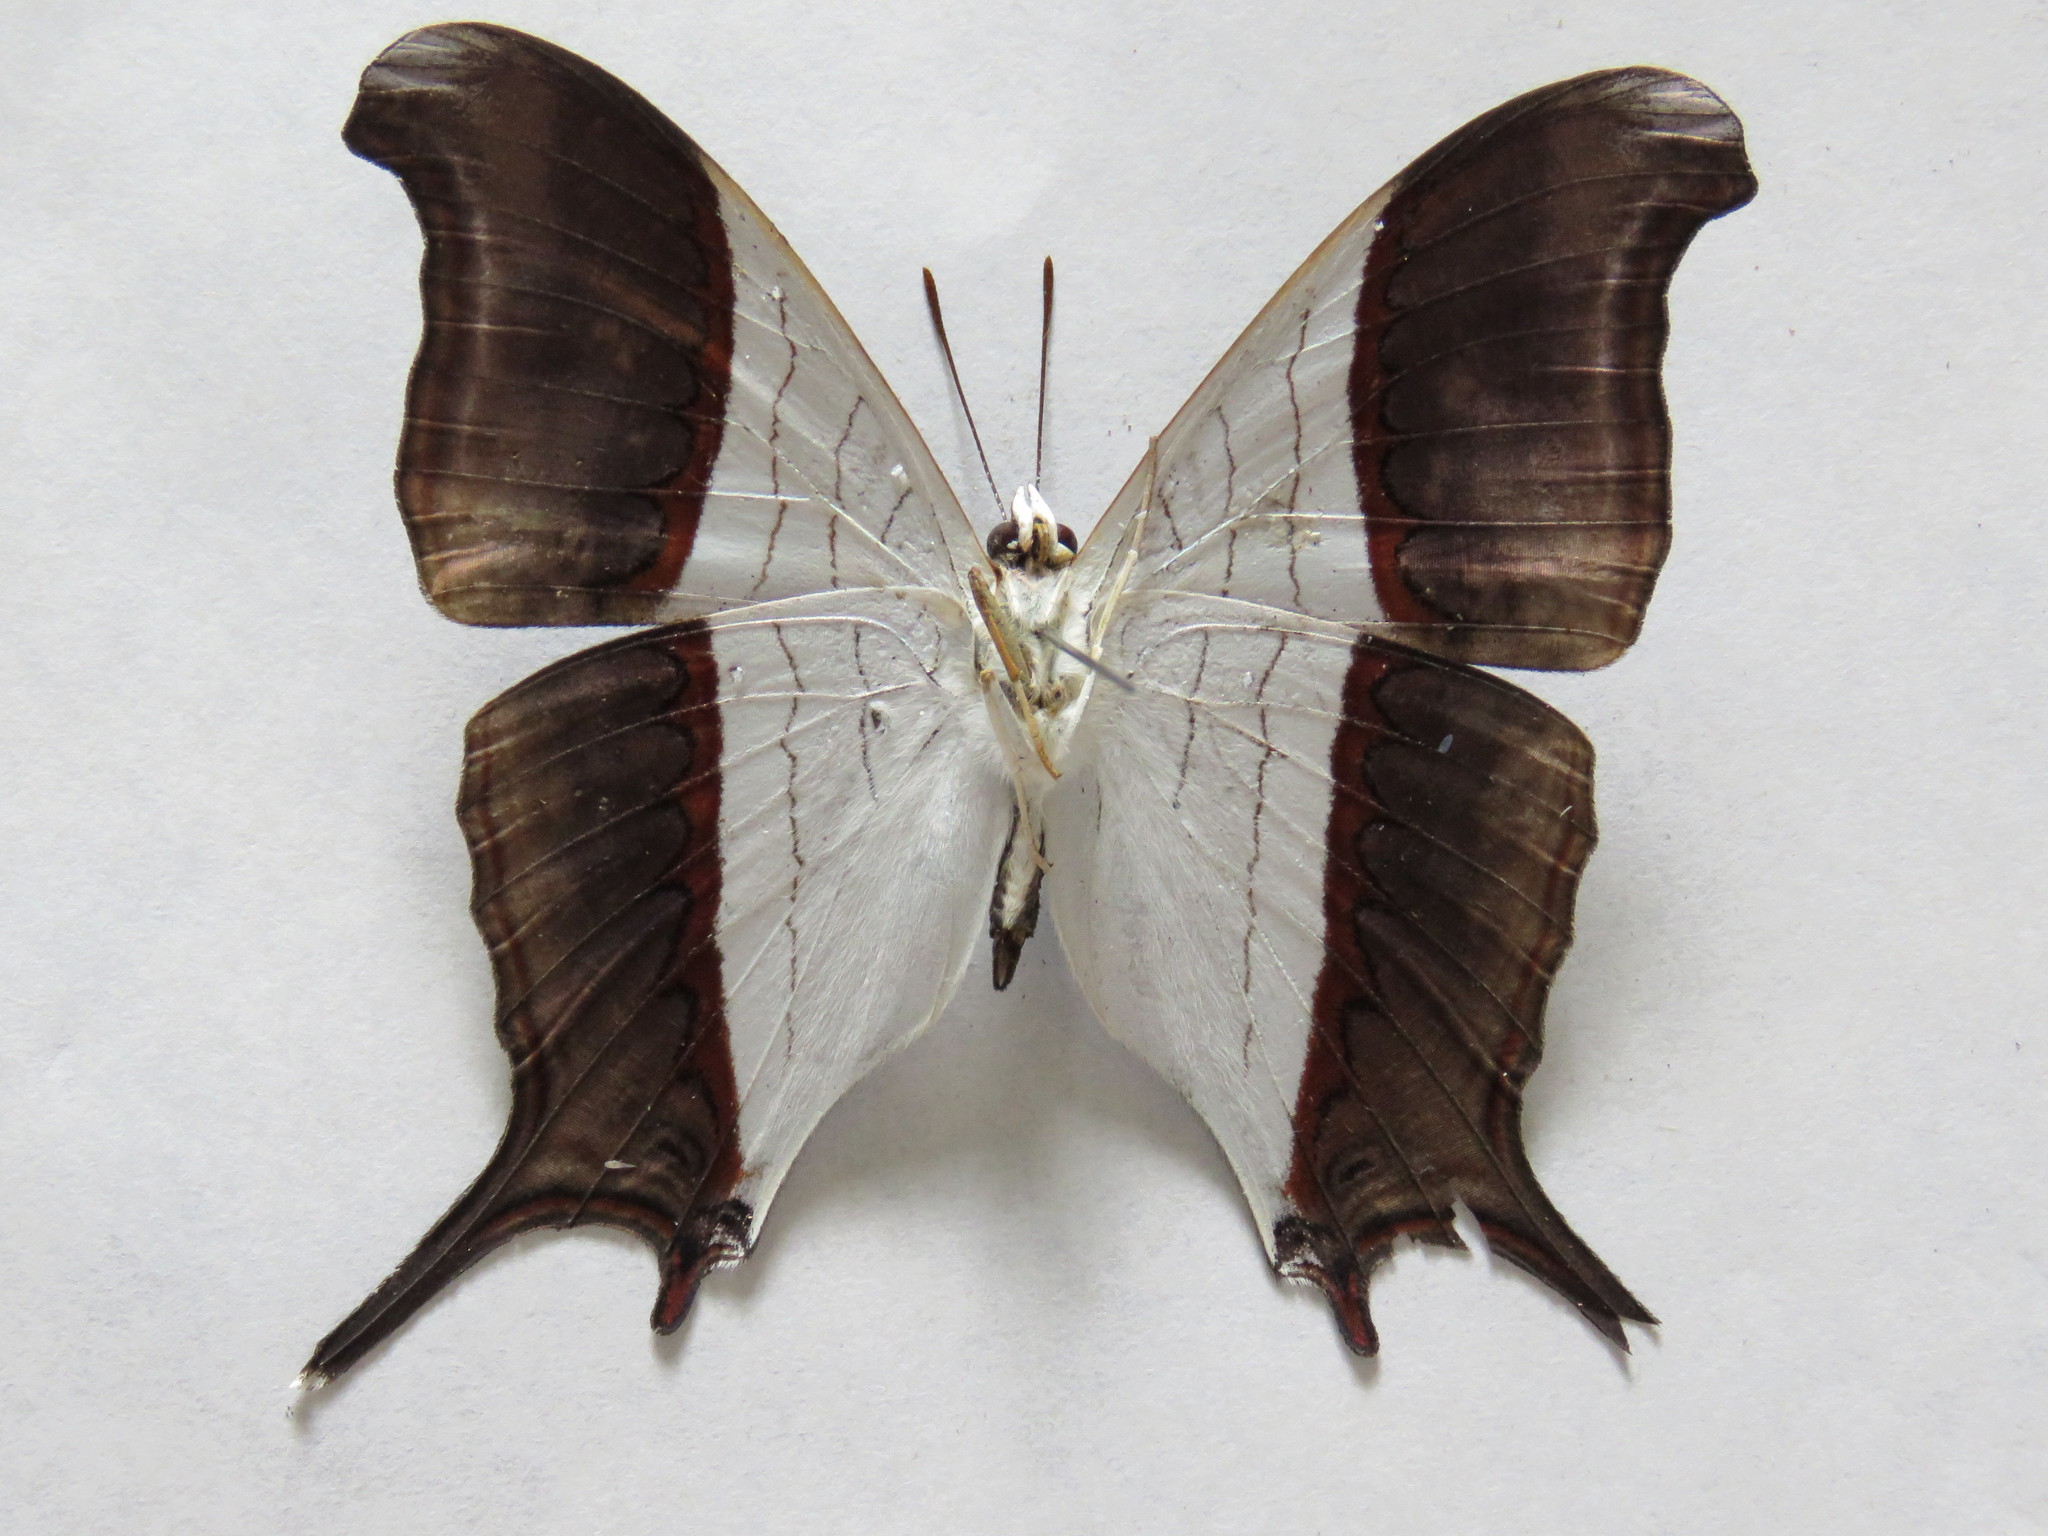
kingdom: Animalia
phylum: Arthropoda
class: Insecta
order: Lepidoptera
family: Nymphalidae
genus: Marpesia
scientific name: Marpesia zerynthia
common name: Waiter daggerwing
